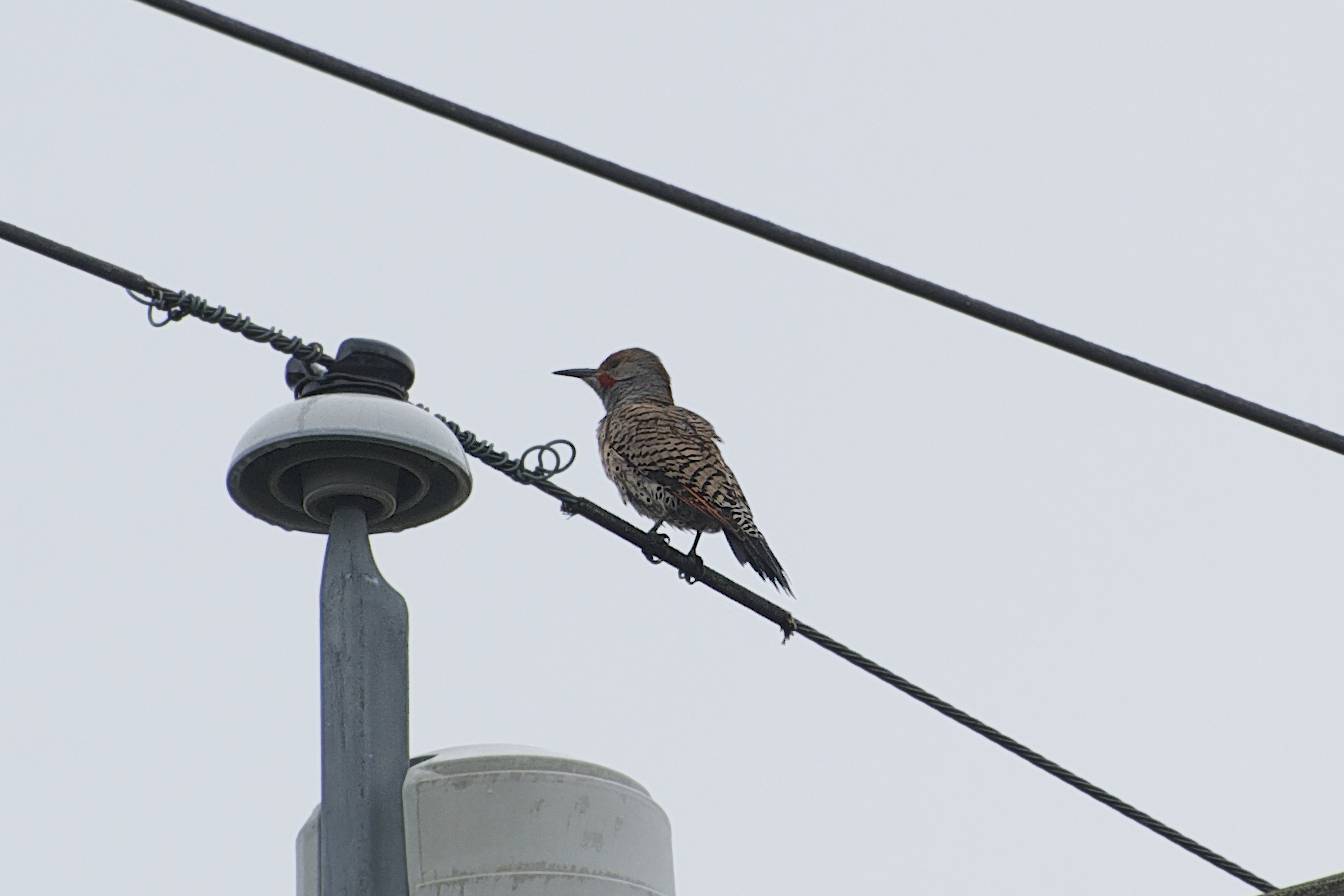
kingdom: Animalia
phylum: Chordata
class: Aves
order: Piciformes
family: Picidae
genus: Colaptes
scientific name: Colaptes auratus
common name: Northern flicker
